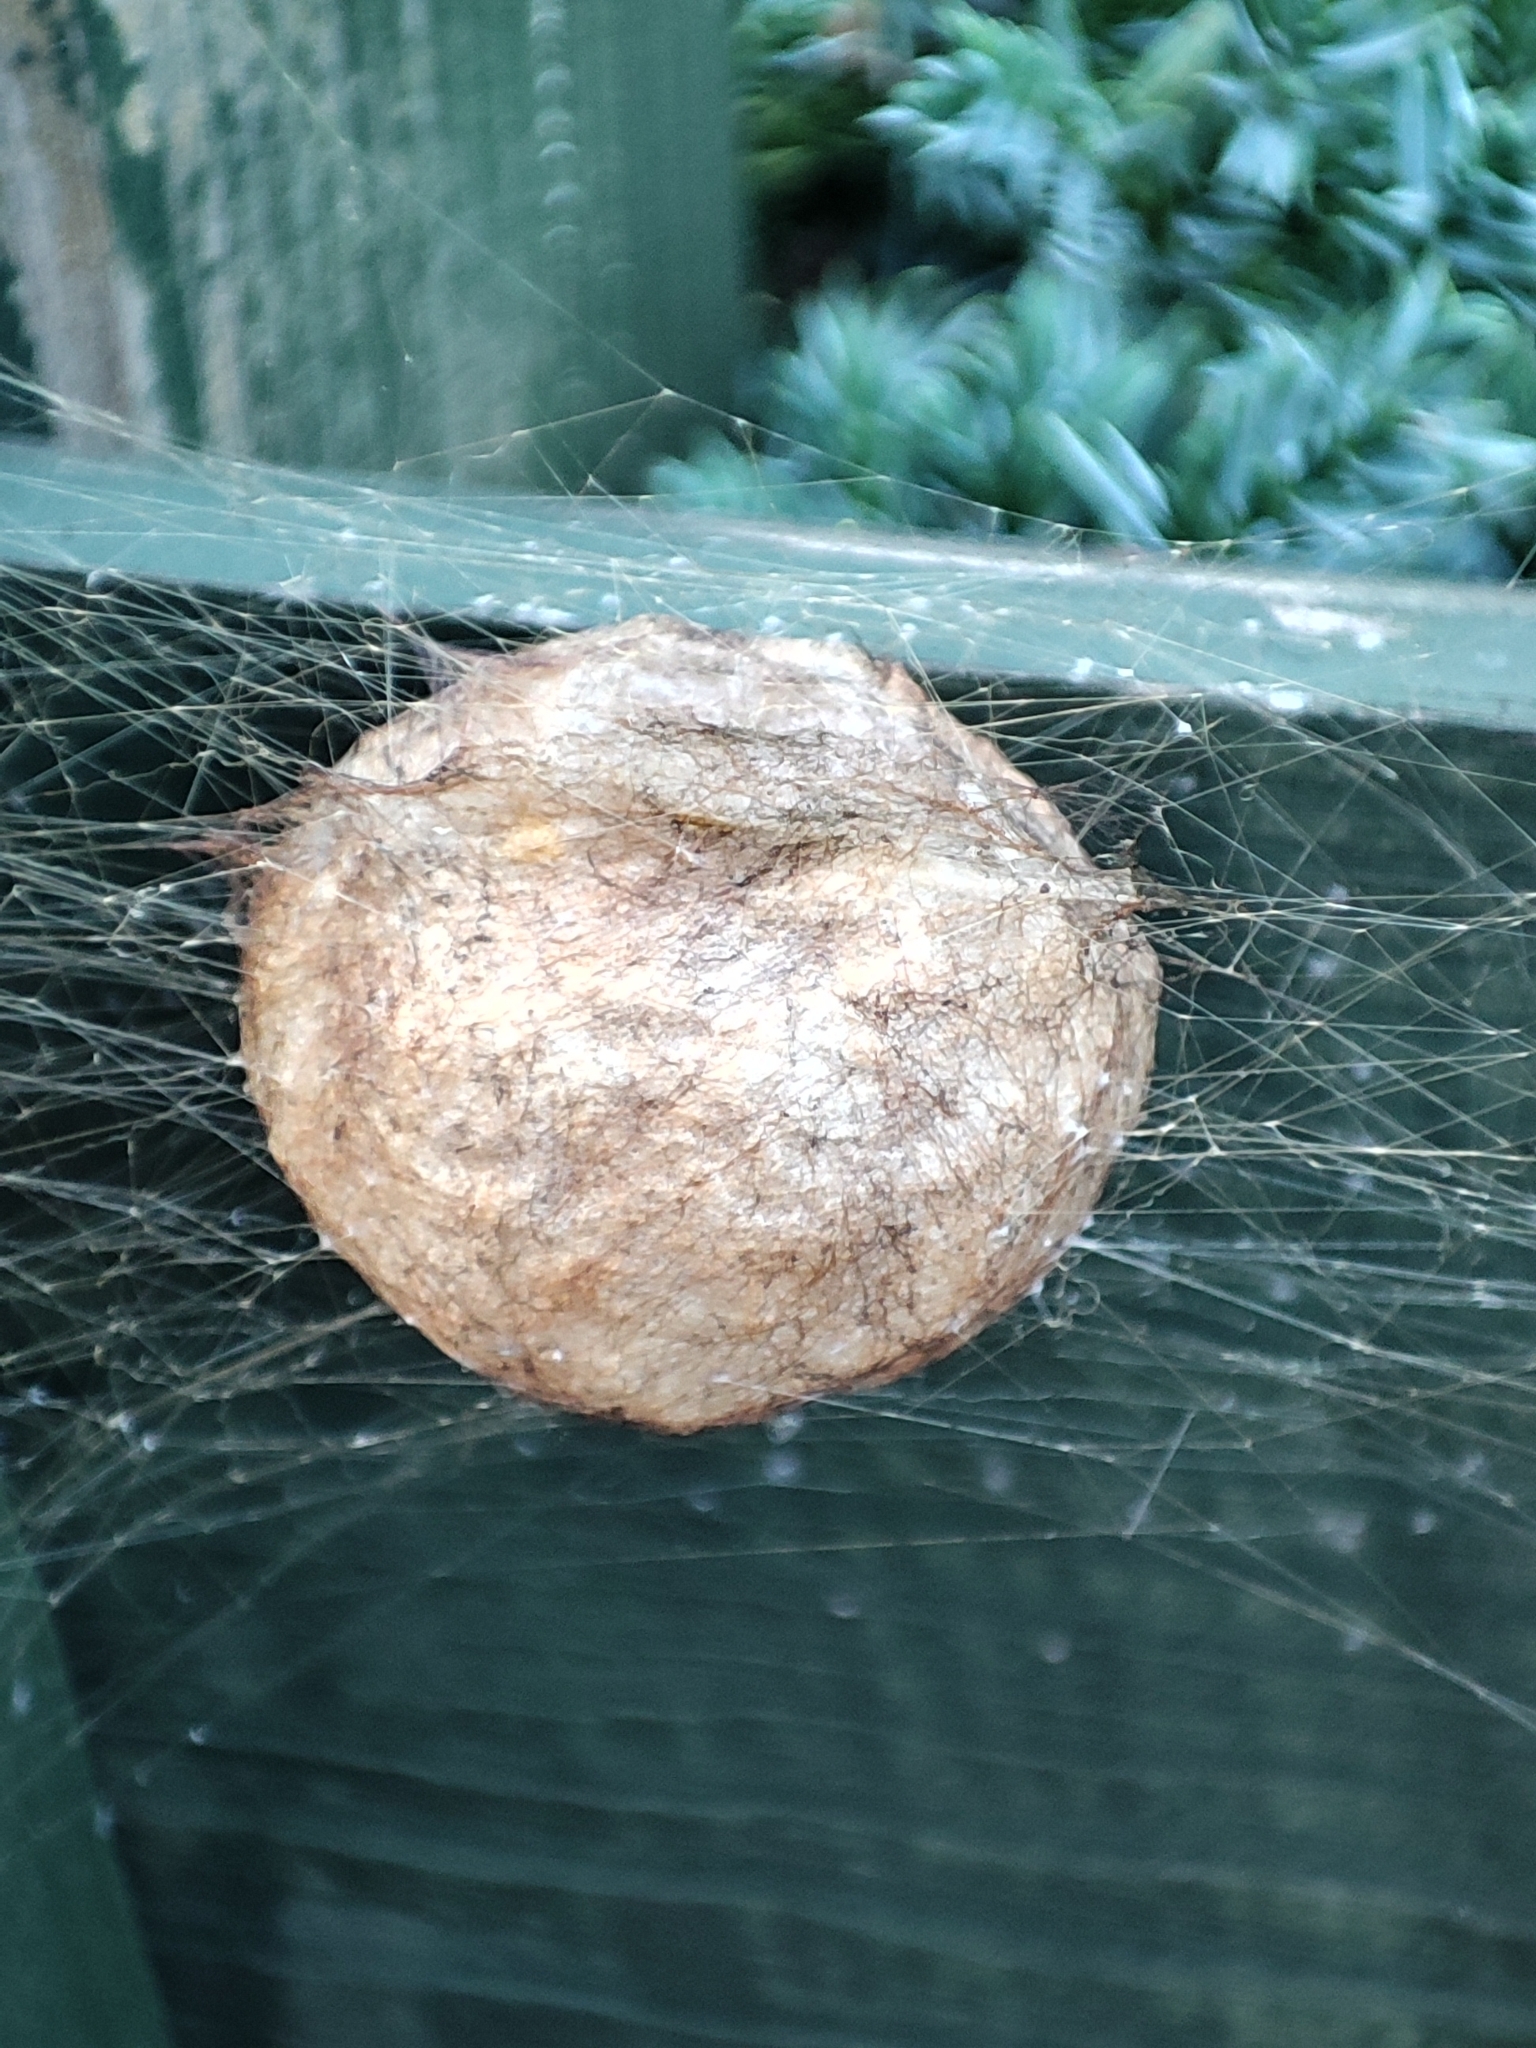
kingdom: Animalia
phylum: Arthropoda
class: Arachnida
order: Araneae
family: Araneidae
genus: Argiope
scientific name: Argiope bruennichi
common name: Wasp spider
